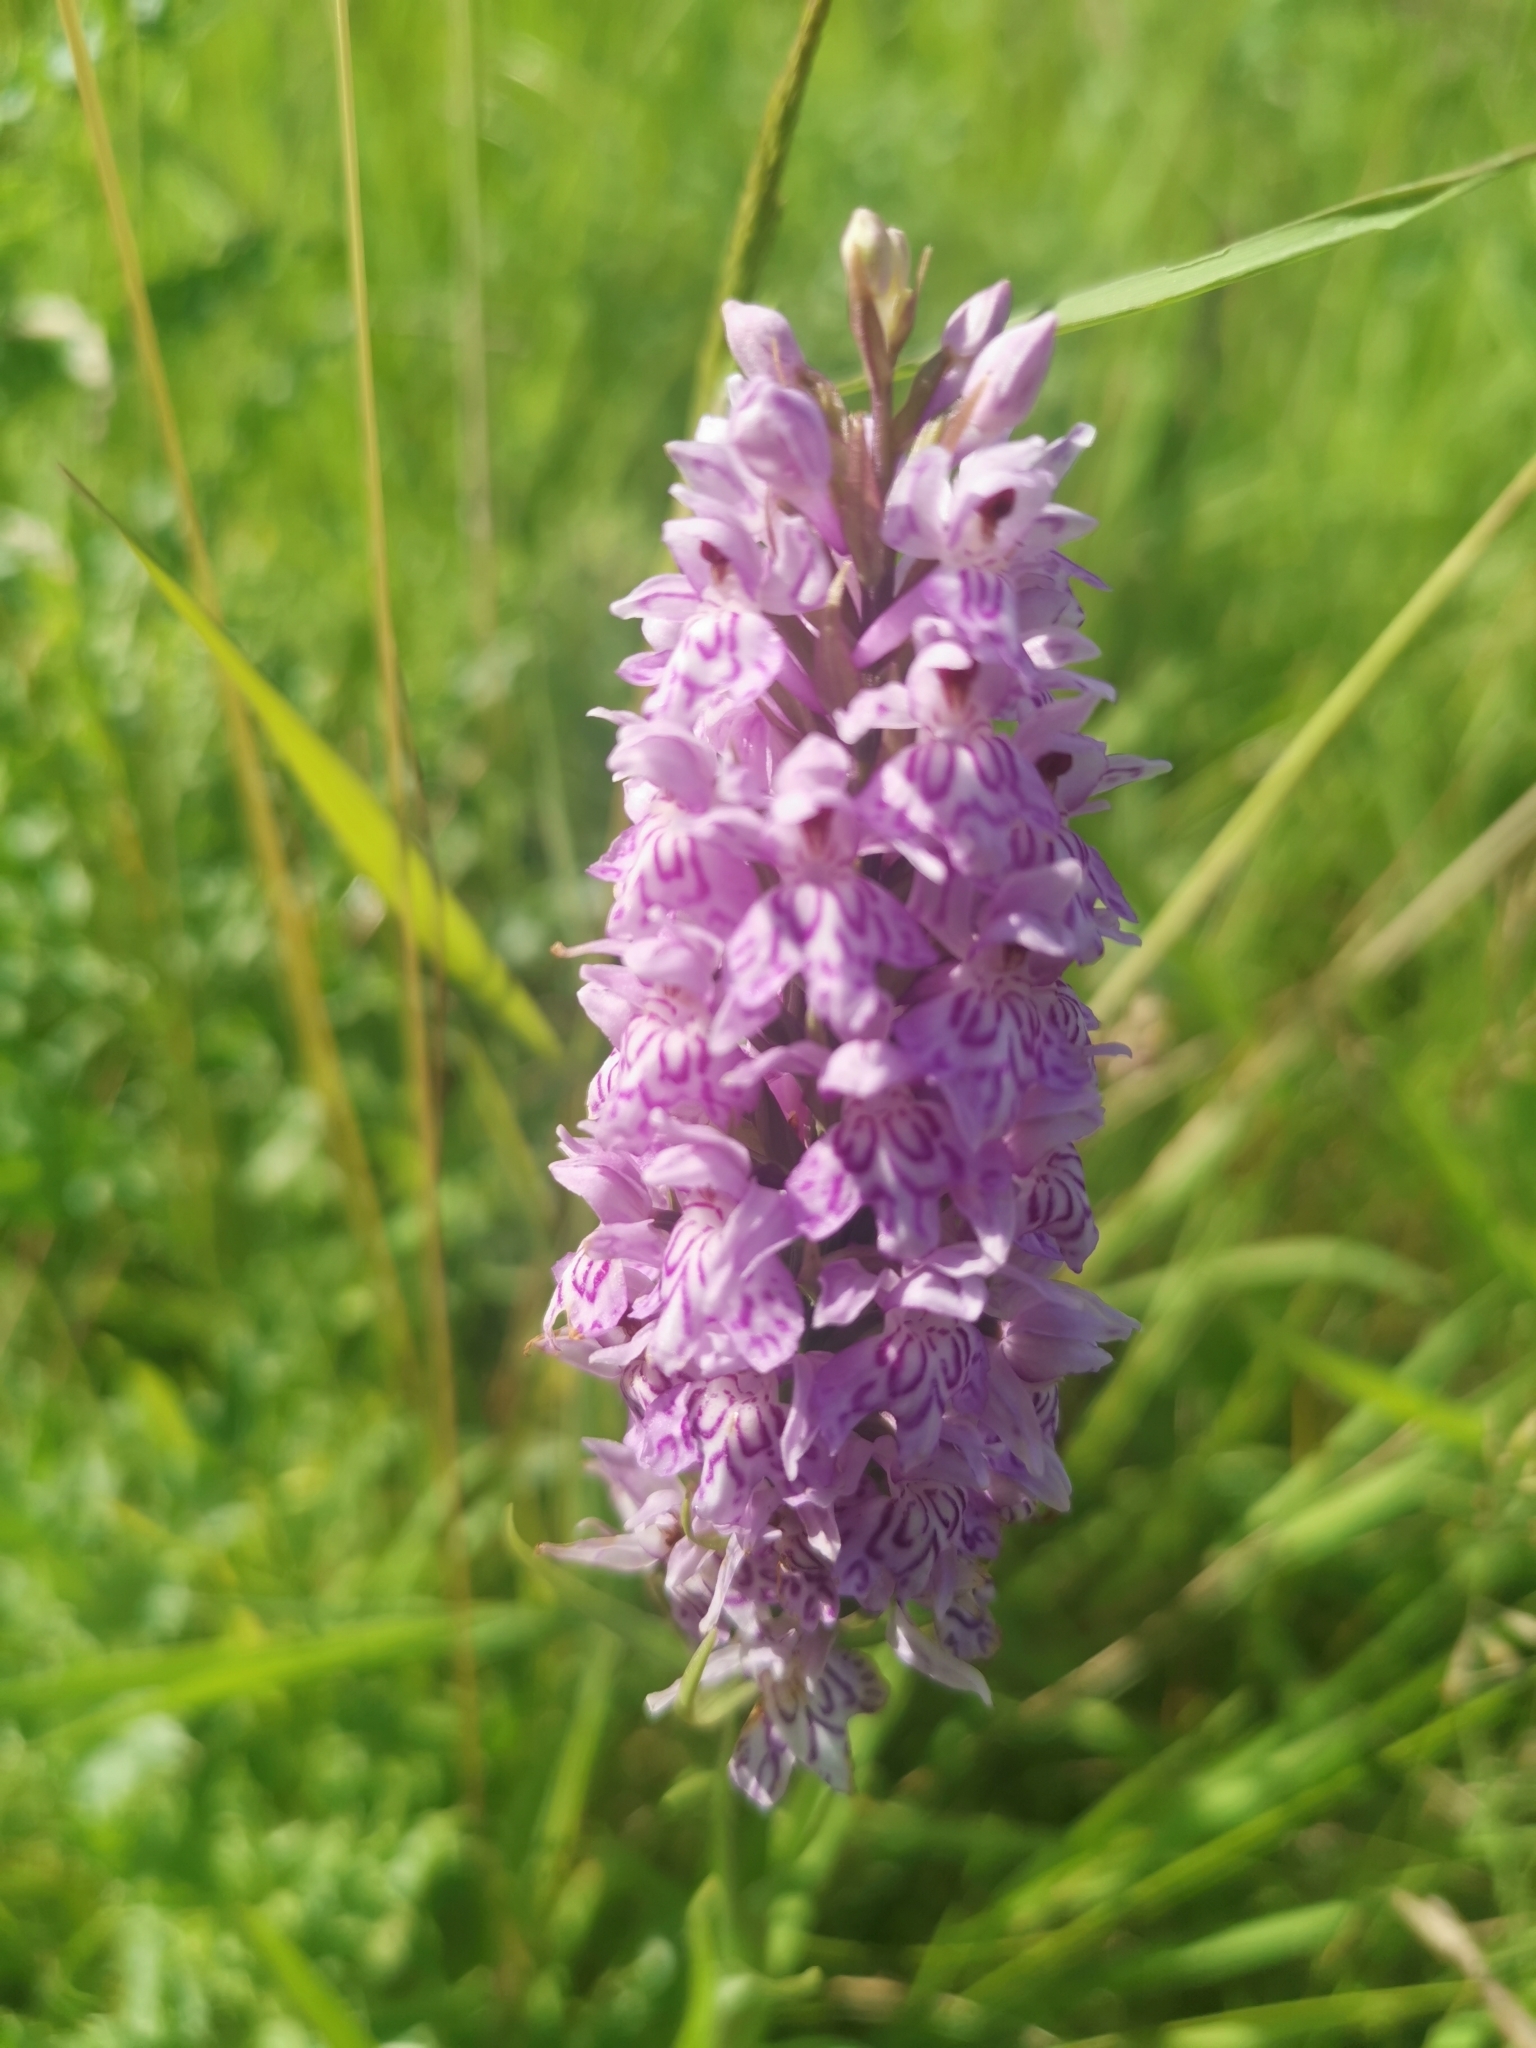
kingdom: Plantae
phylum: Tracheophyta
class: Liliopsida
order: Asparagales
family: Orchidaceae
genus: Dactylorhiza
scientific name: Dactylorhiza maculata
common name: Heath spotted-orchid
